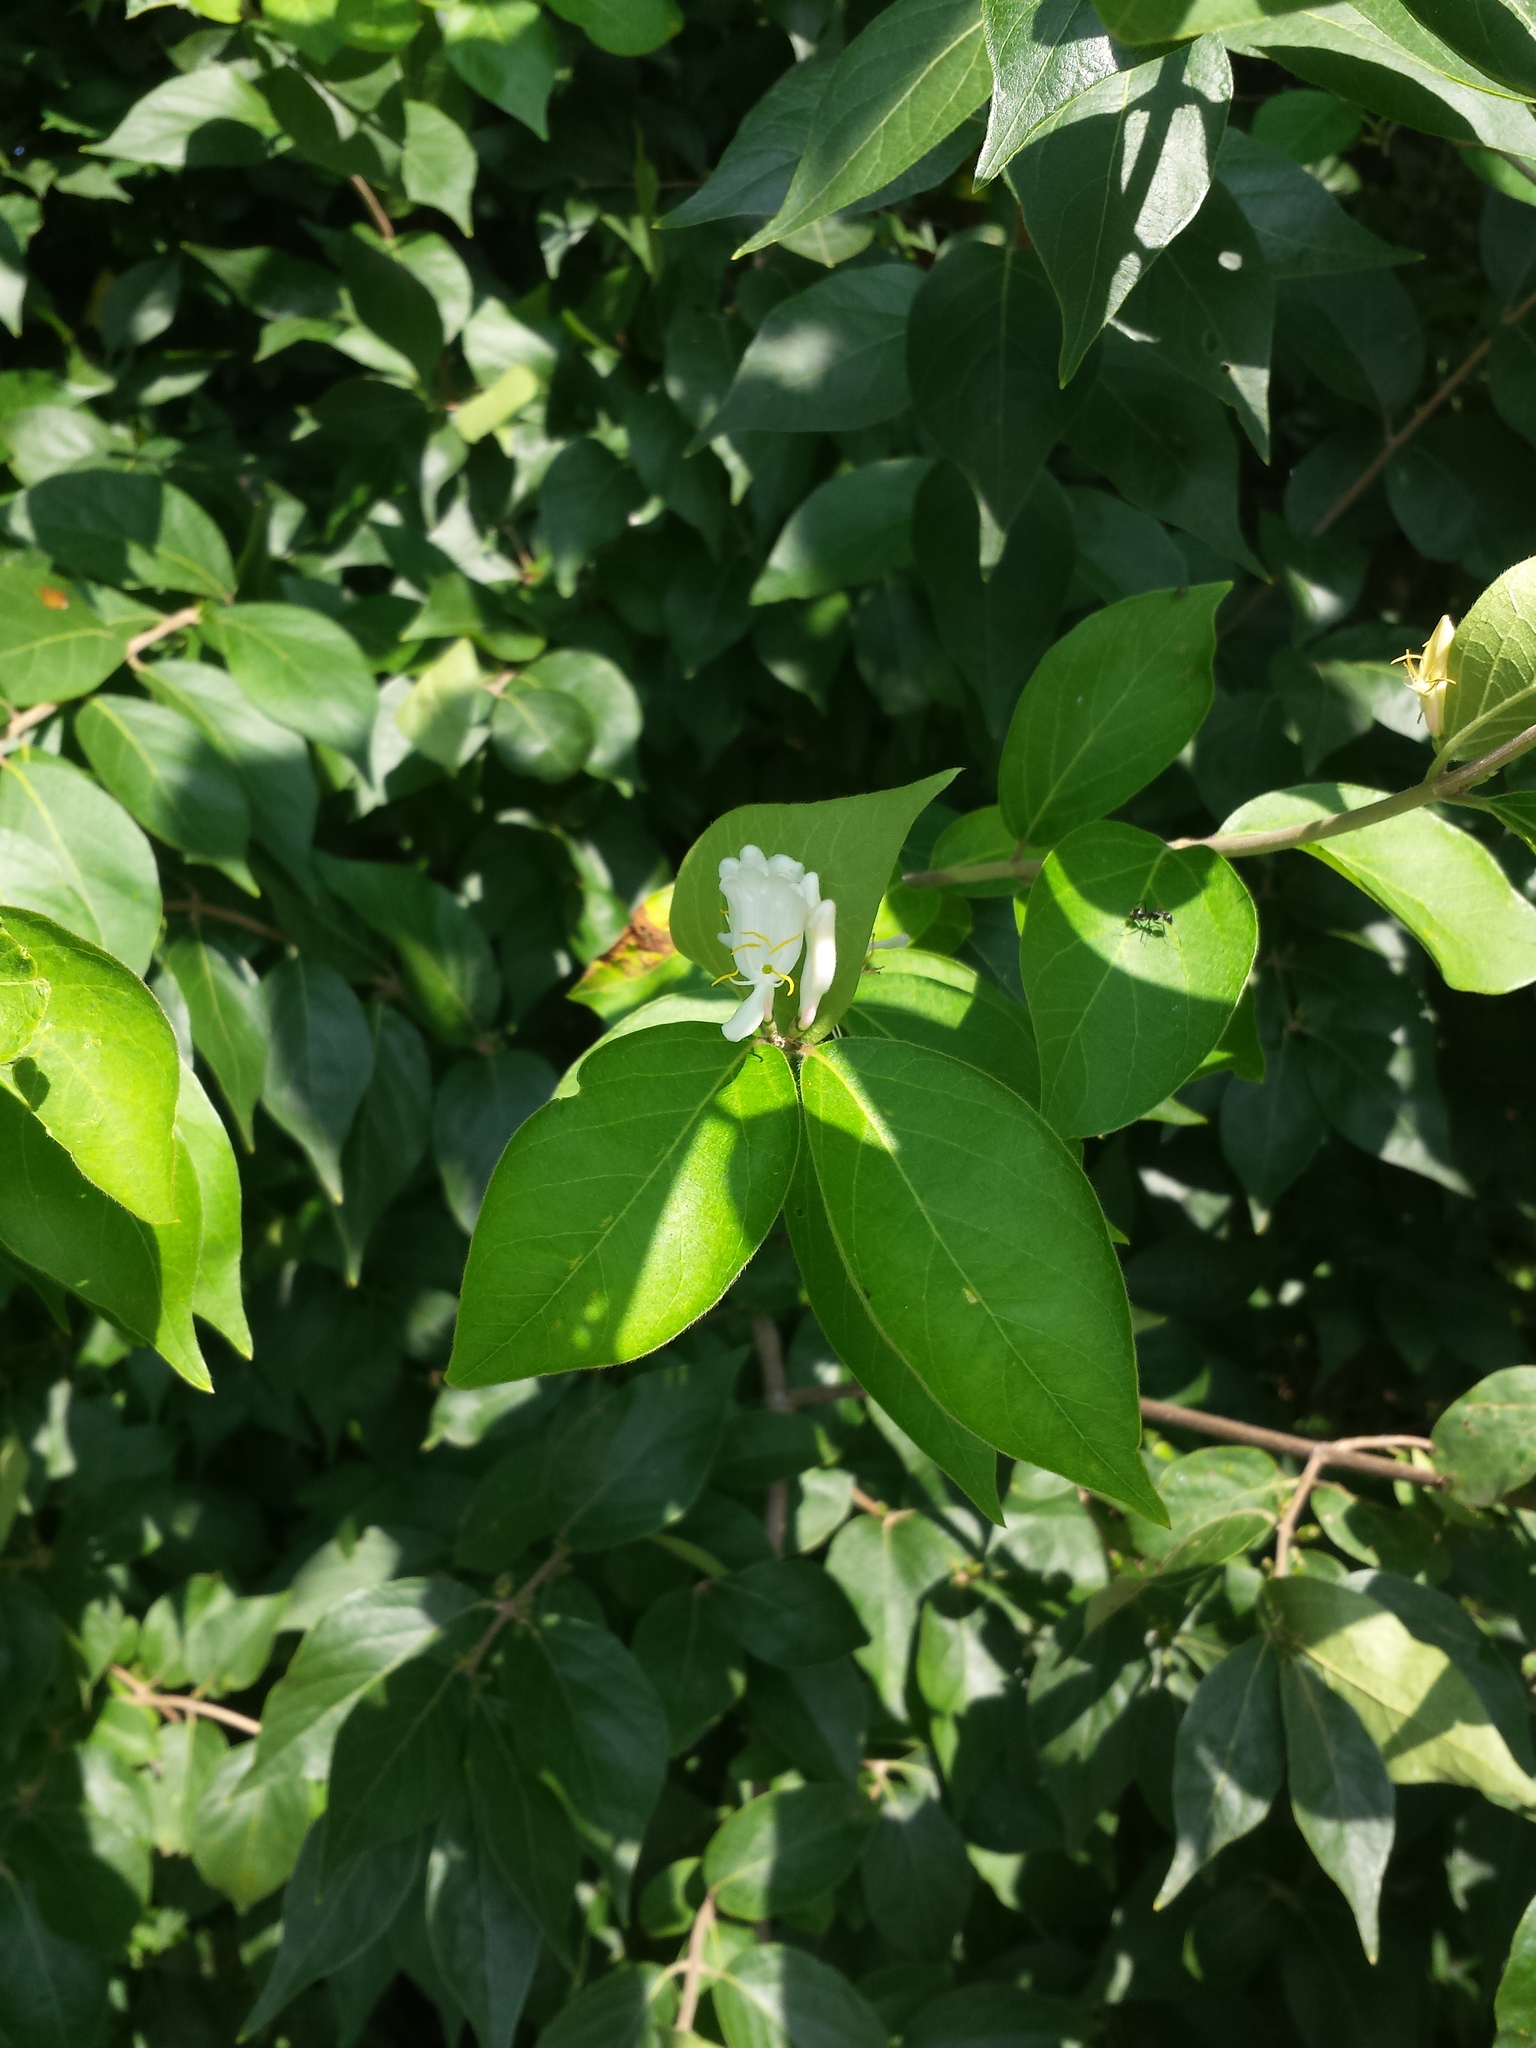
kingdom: Plantae
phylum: Tracheophyta
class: Magnoliopsida
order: Dipsacales
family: Caprifoliaceae
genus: Lonicera
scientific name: Lonicera maackii
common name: Amur honeysuckle
